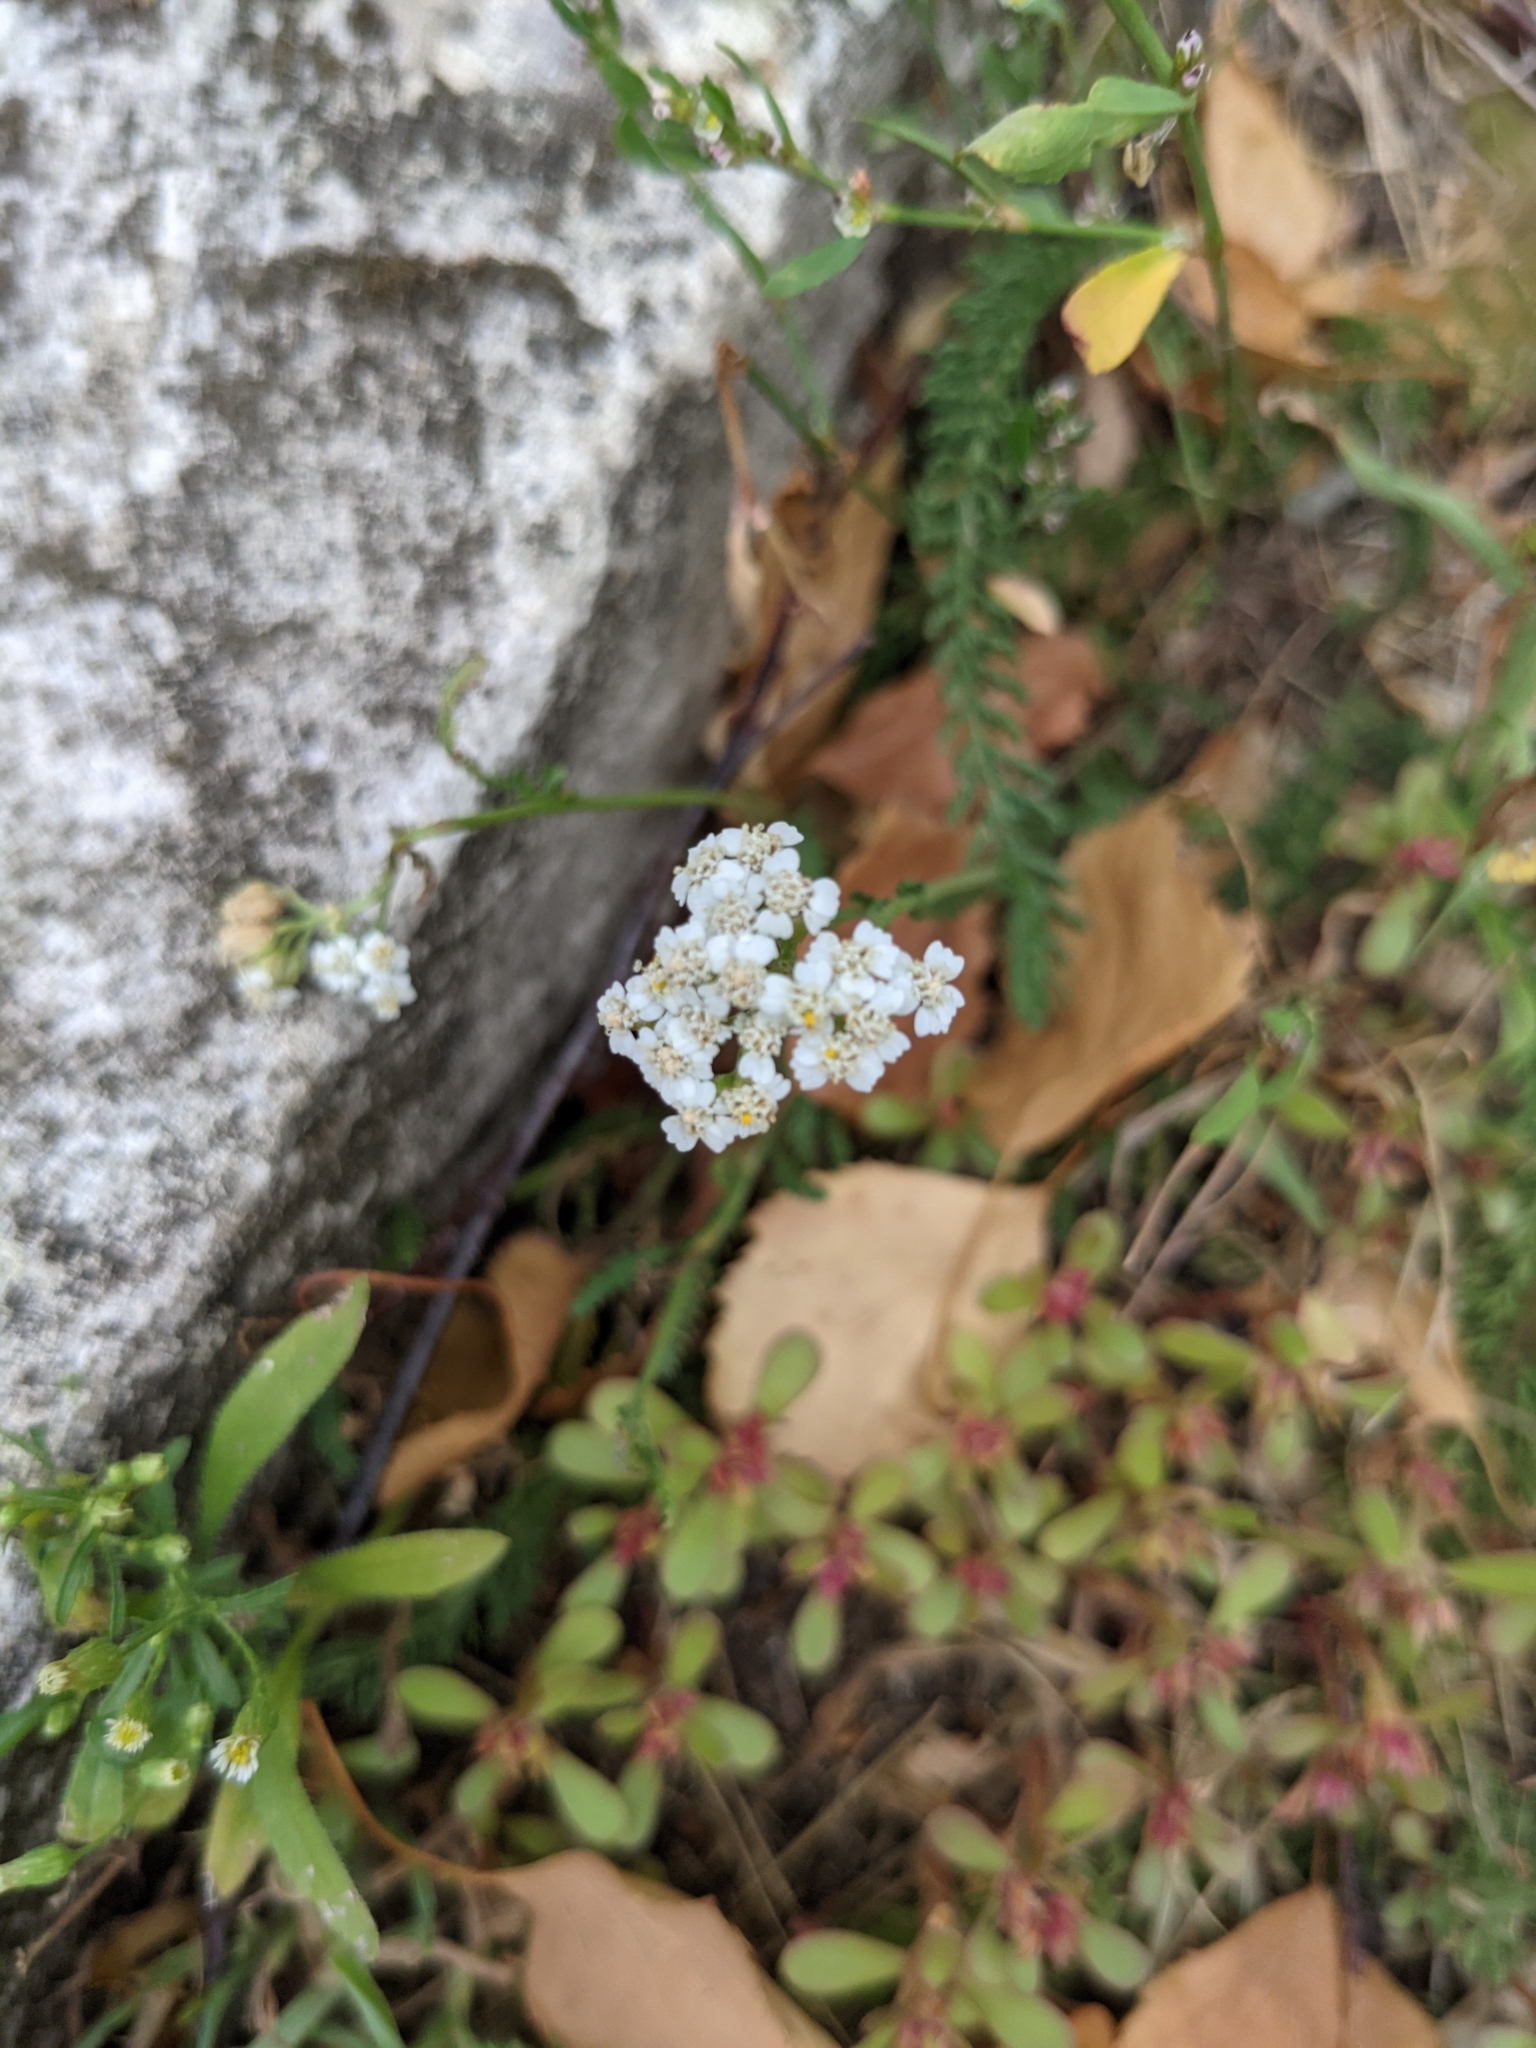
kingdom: Plantae
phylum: Tracheophyta
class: Magnoliopsida
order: Asterales
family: Asteraceae
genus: Achillea
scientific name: Achillea millefolium
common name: Yarrow
